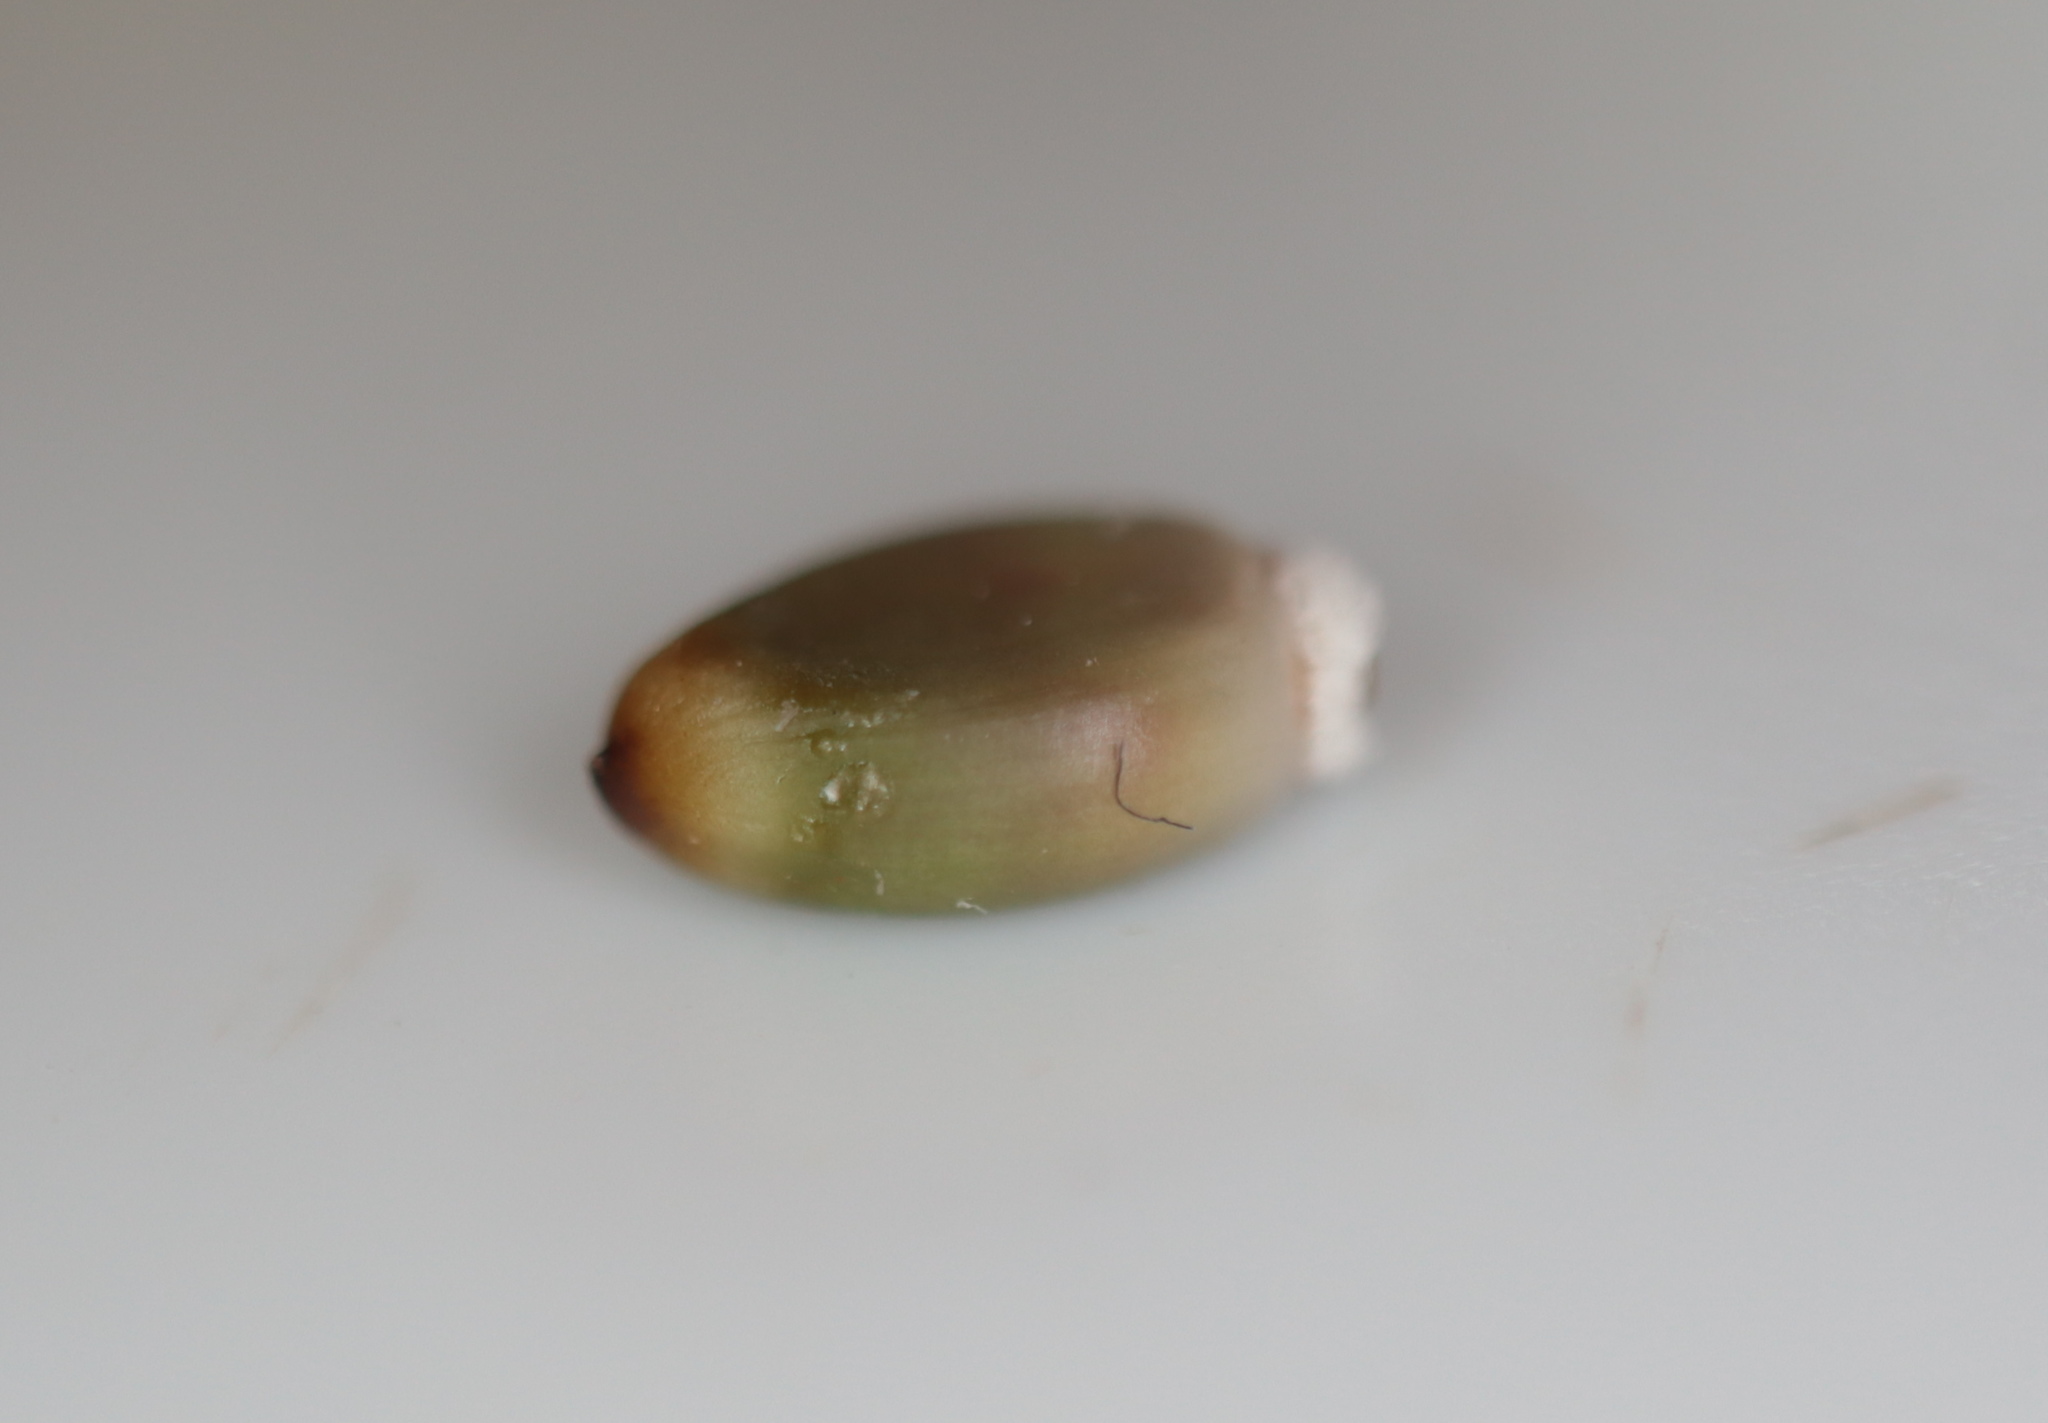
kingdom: Animalia
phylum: Arthropoda
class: Insecta
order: Hymenoptera
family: Cynipidae
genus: Callirhytis
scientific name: Callirhytis glandium
